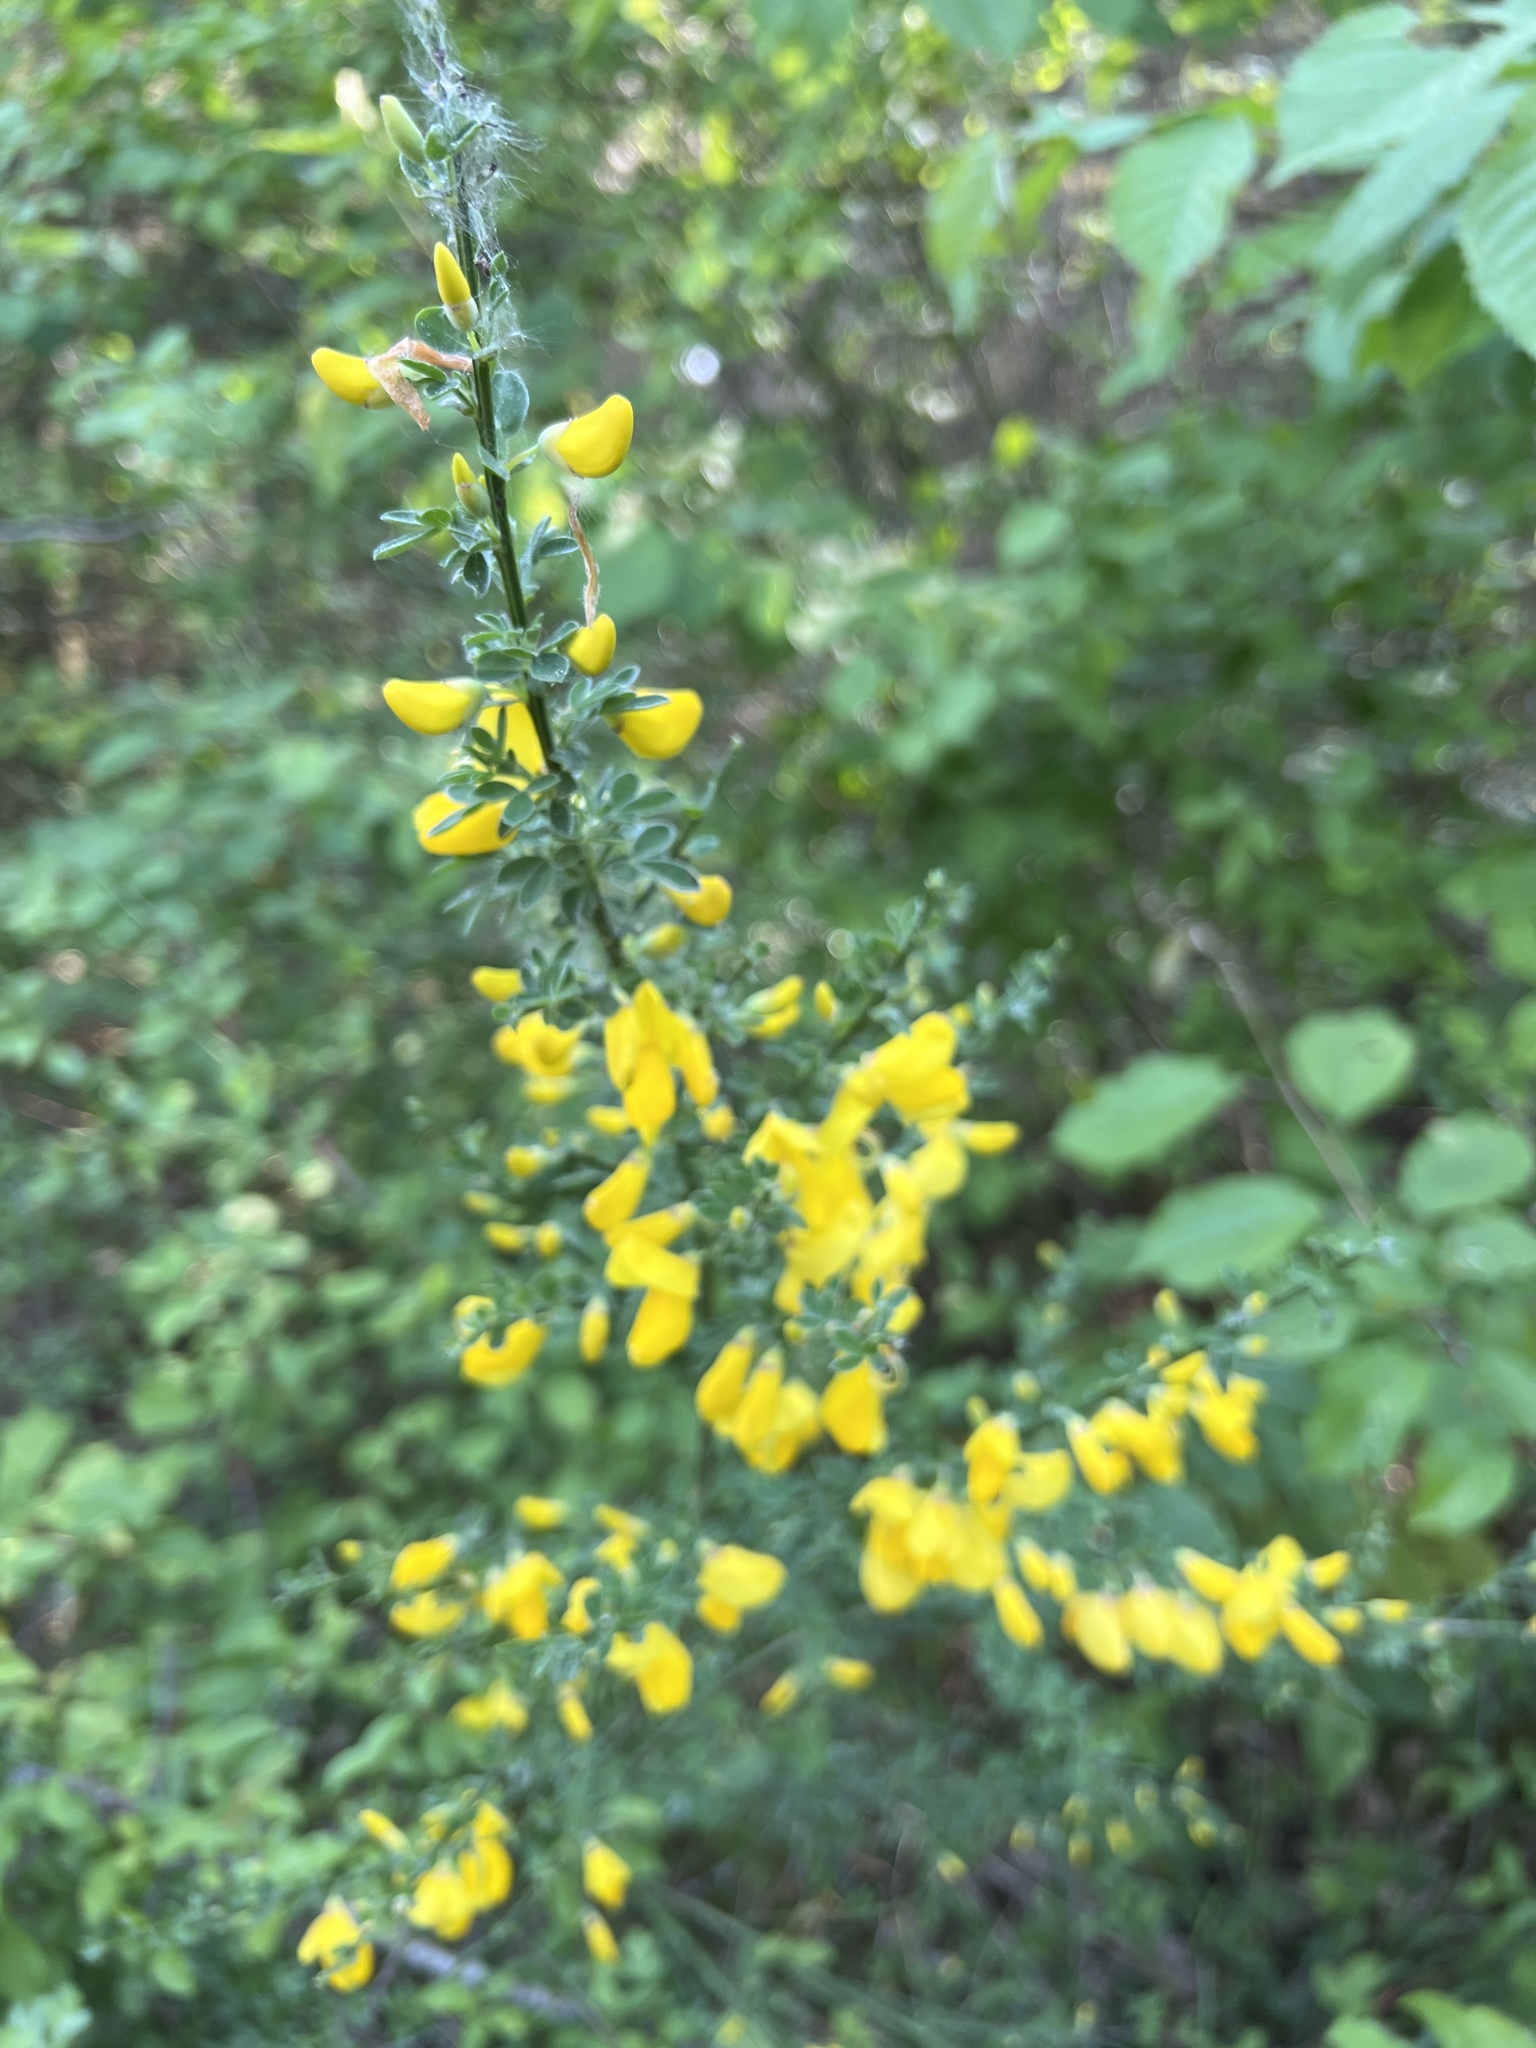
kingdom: Plantae
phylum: Tracheophyta
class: Magnoliopsida
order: Fabales
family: Fabaceae
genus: Cytisus
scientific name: Cytisus scoparius
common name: Scotch broom
